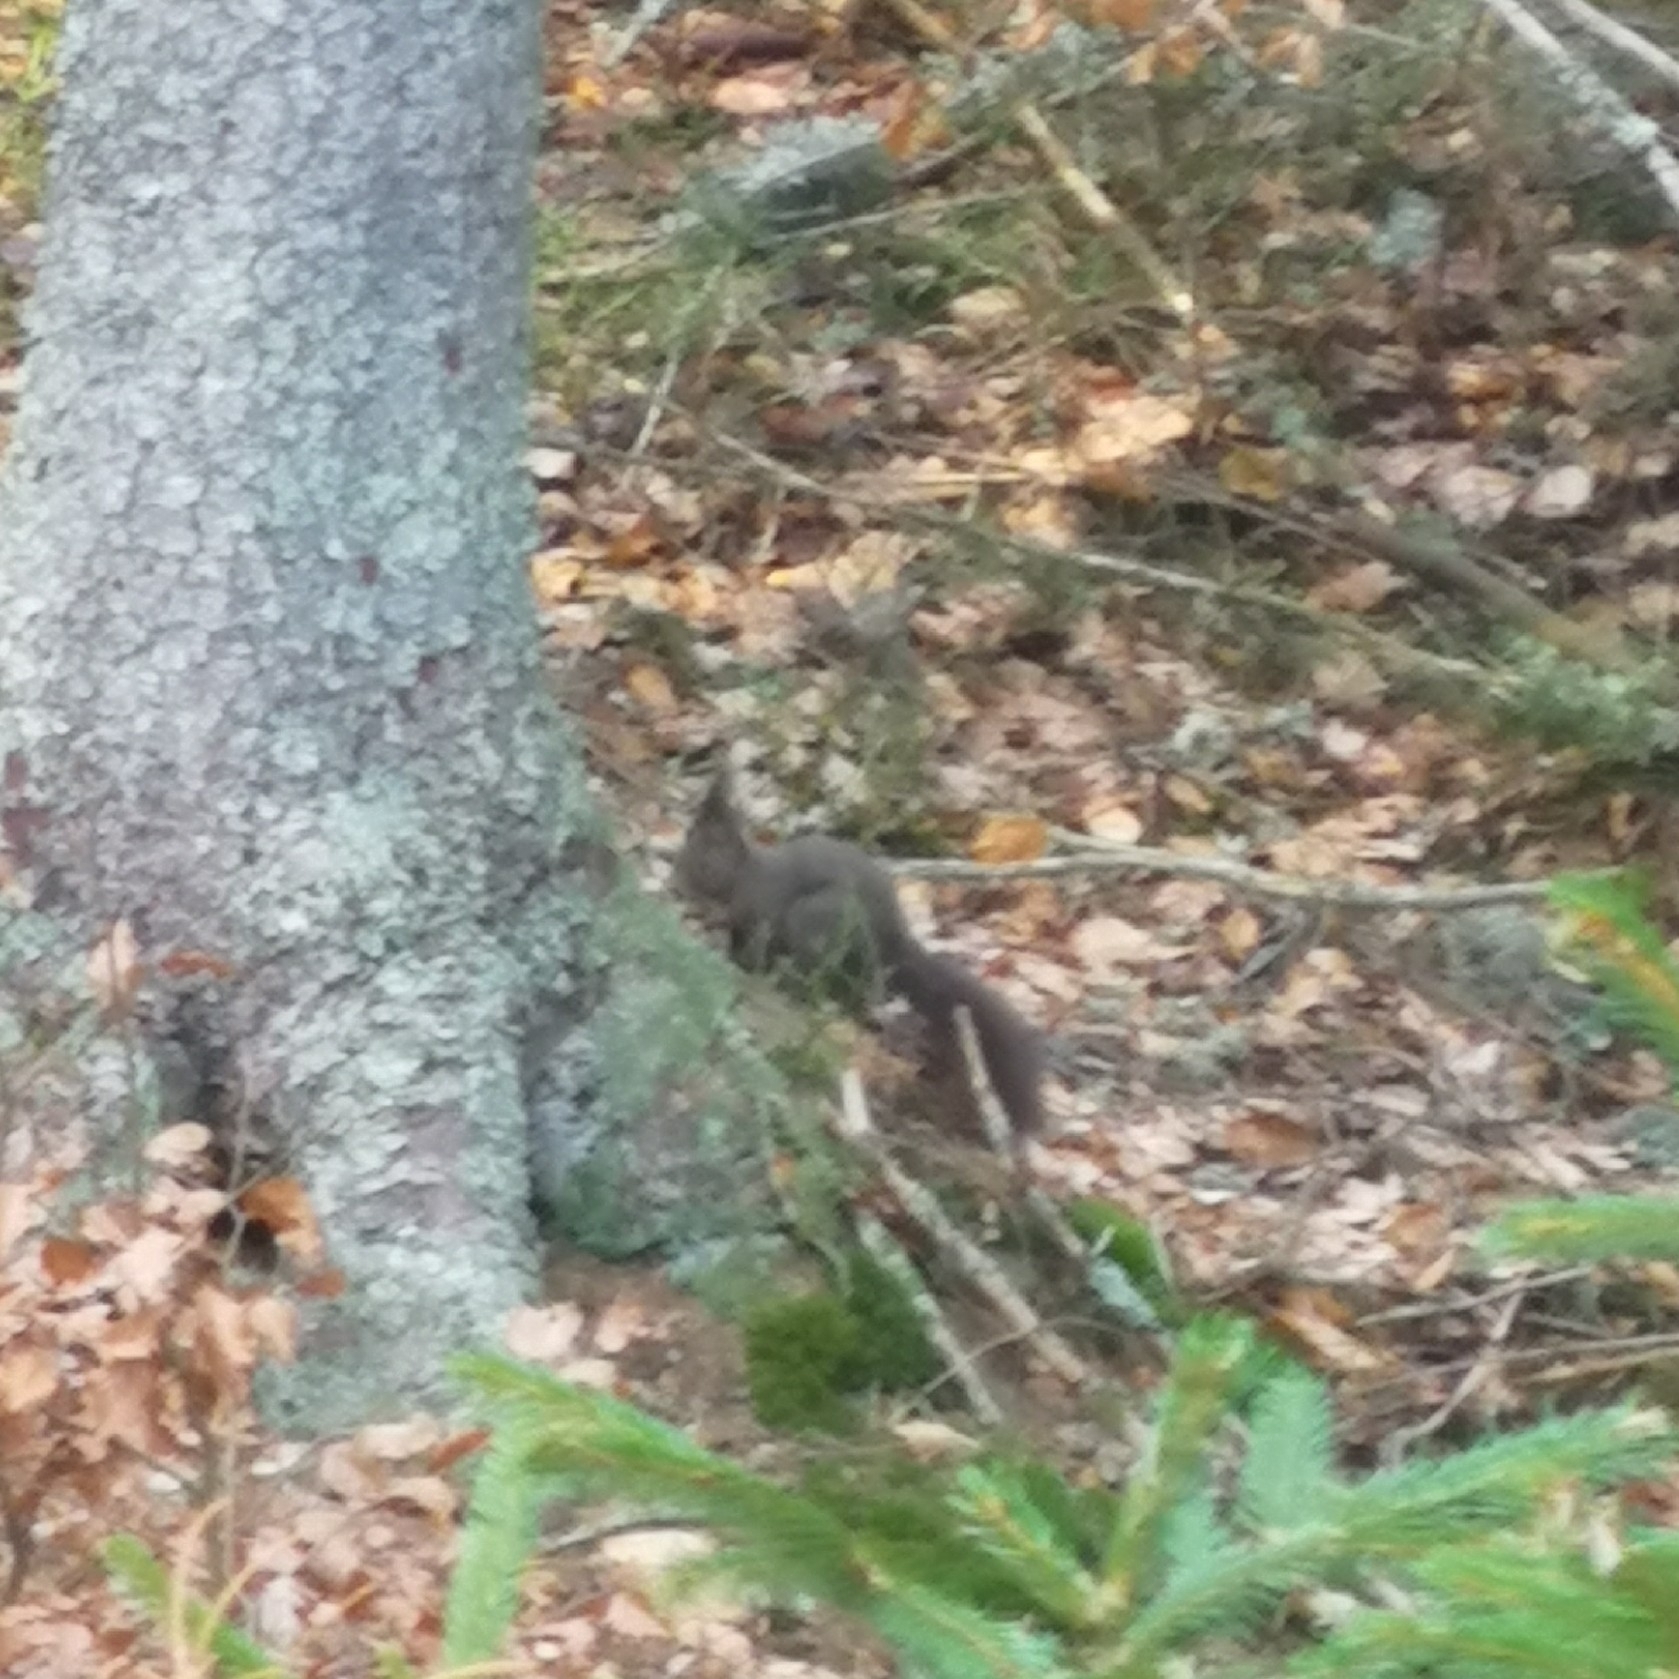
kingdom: Animalia
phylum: Chordata
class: Mammalia
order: Rodentia
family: Sciuridae
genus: Sciurus
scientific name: Sciurus vulgaris
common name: Eurasian red squirrel
